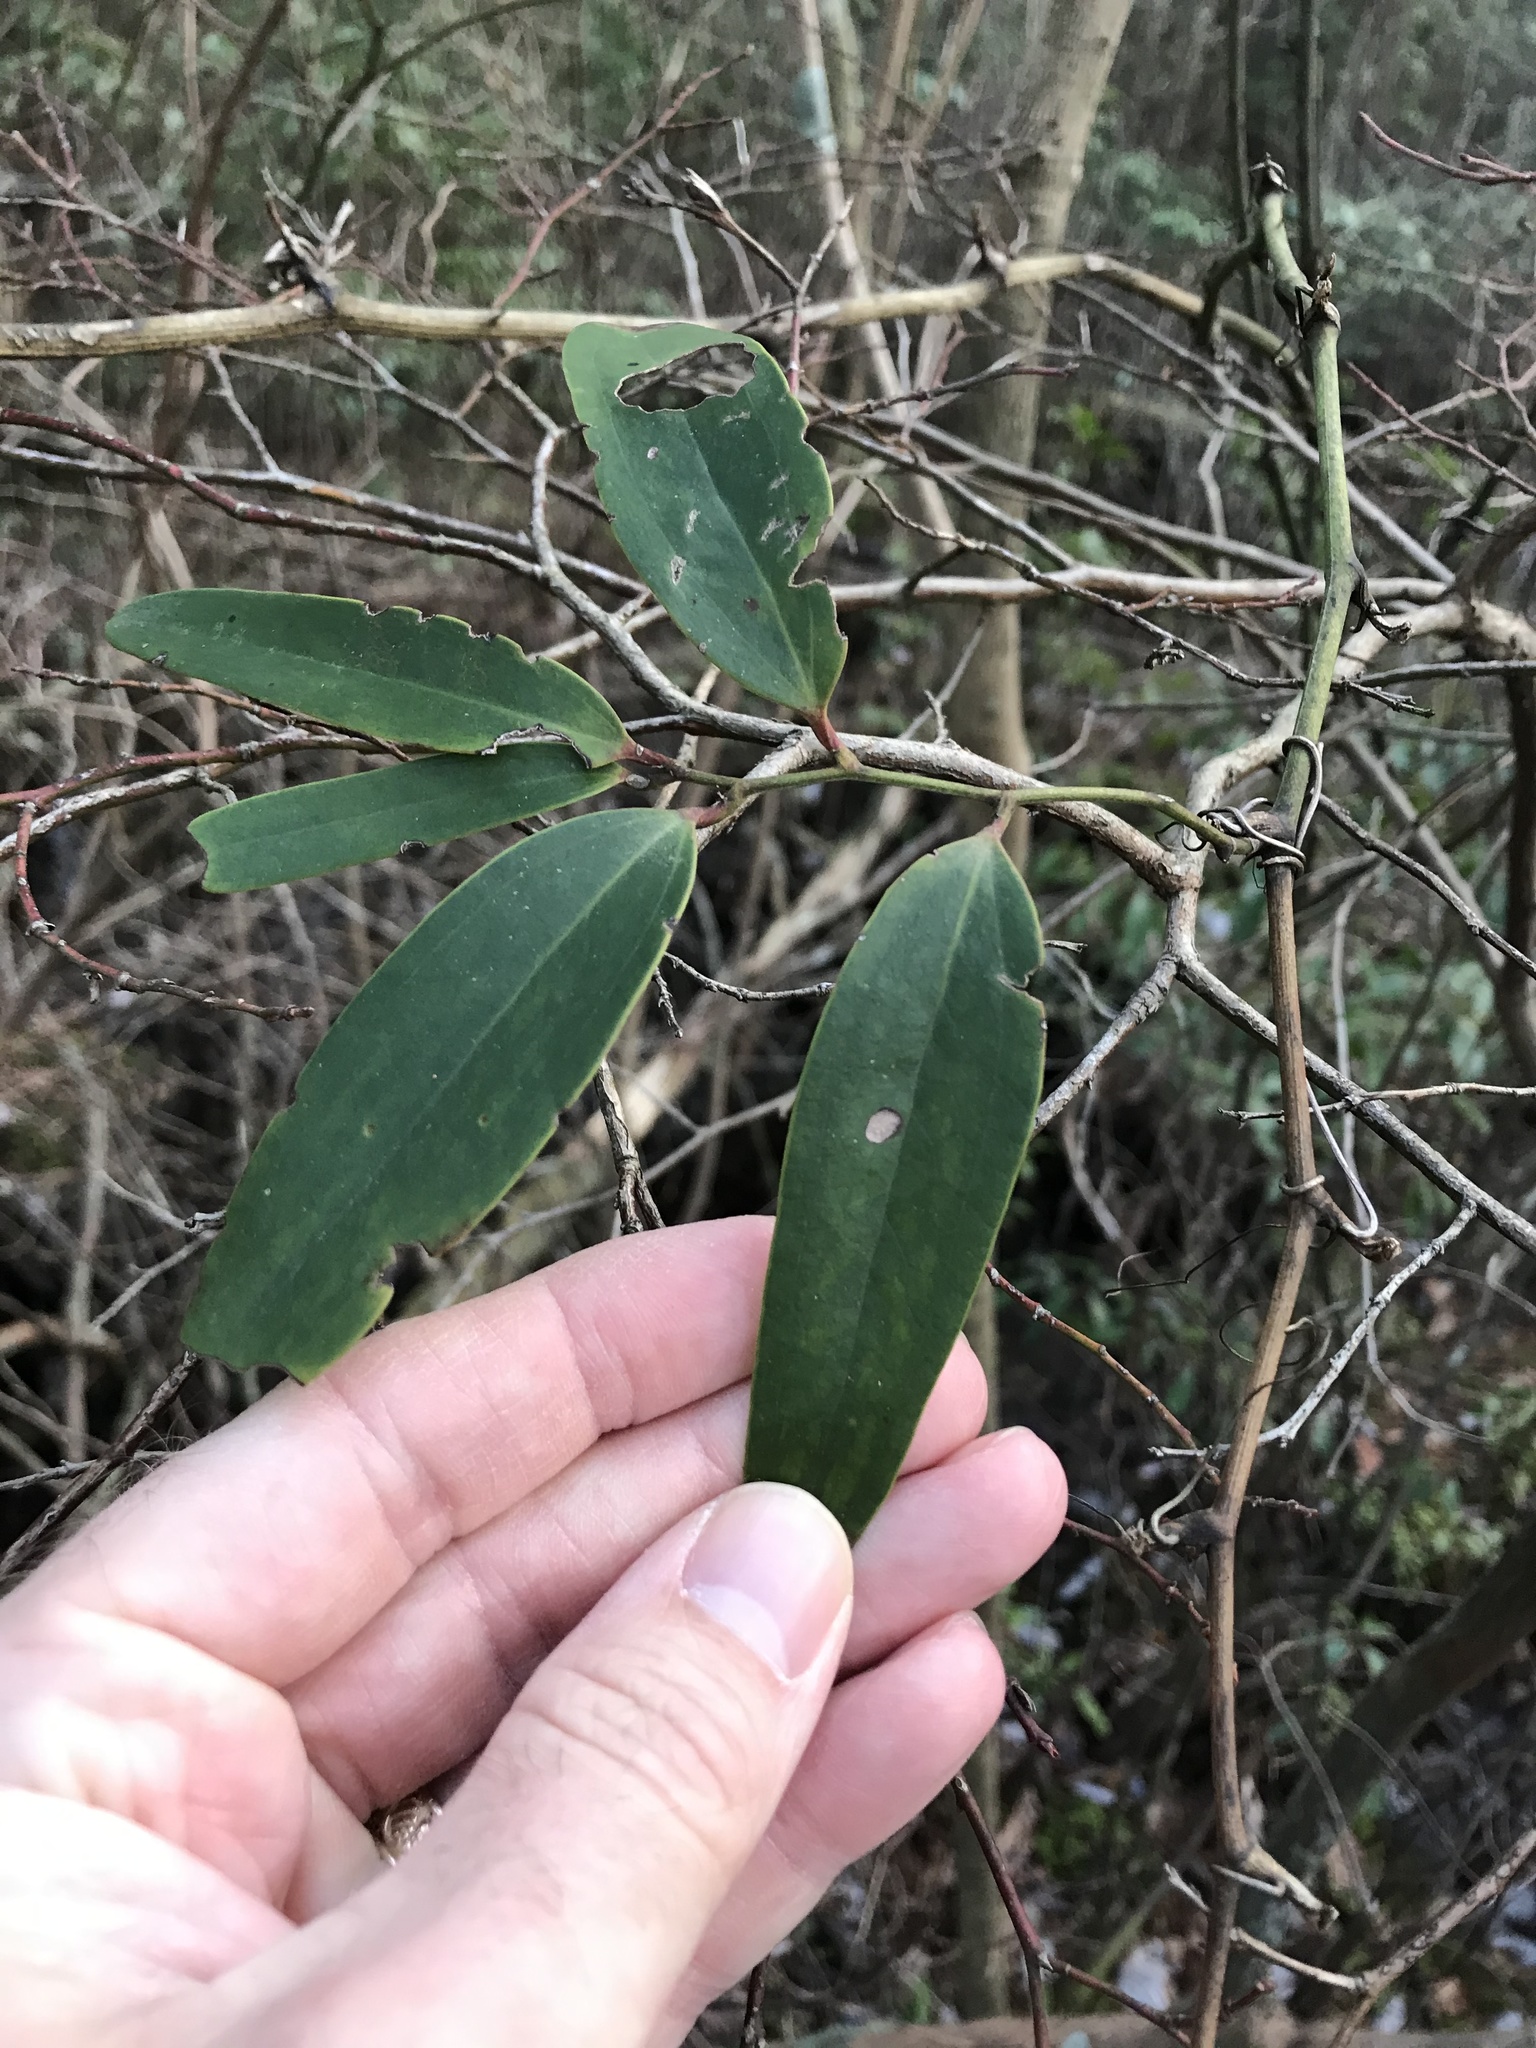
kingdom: Plantae
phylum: Tracheophyta
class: Liliopsida
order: Liliales
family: Smilacaceae
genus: Smilax
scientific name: Smilax laurifolia
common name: Bamboovine
